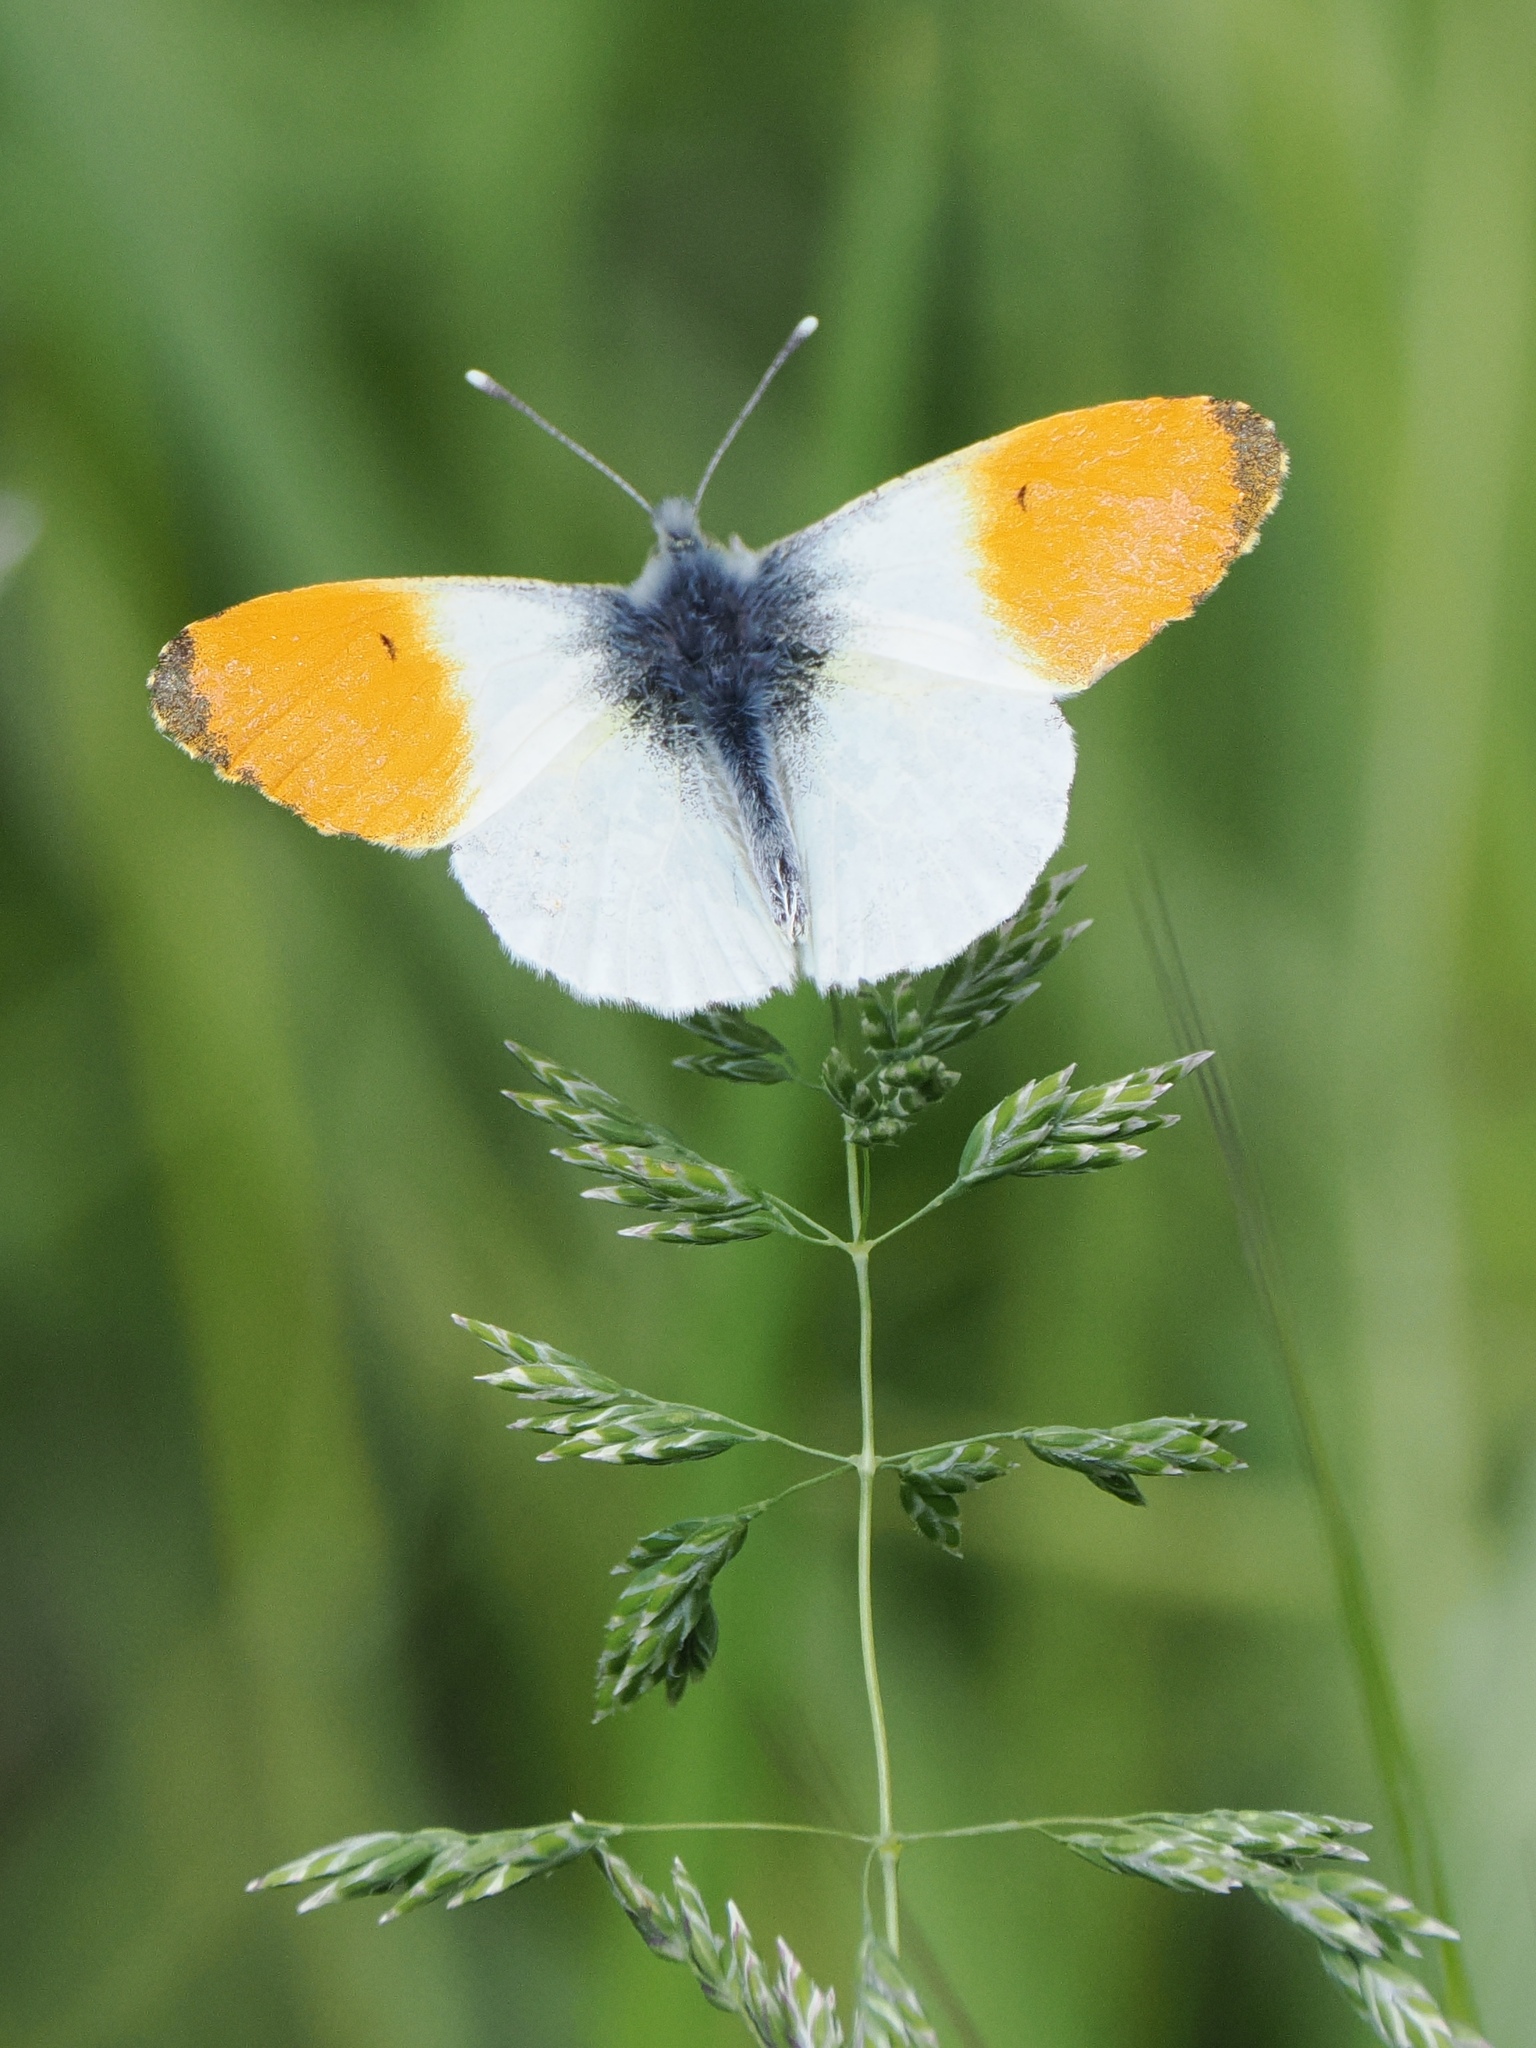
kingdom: Animalia
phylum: Arthropoda
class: Insecta
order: Lepidoptera
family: Pieridae
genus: Anthocharis
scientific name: Anthocharis cardamines
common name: Orange-tip
